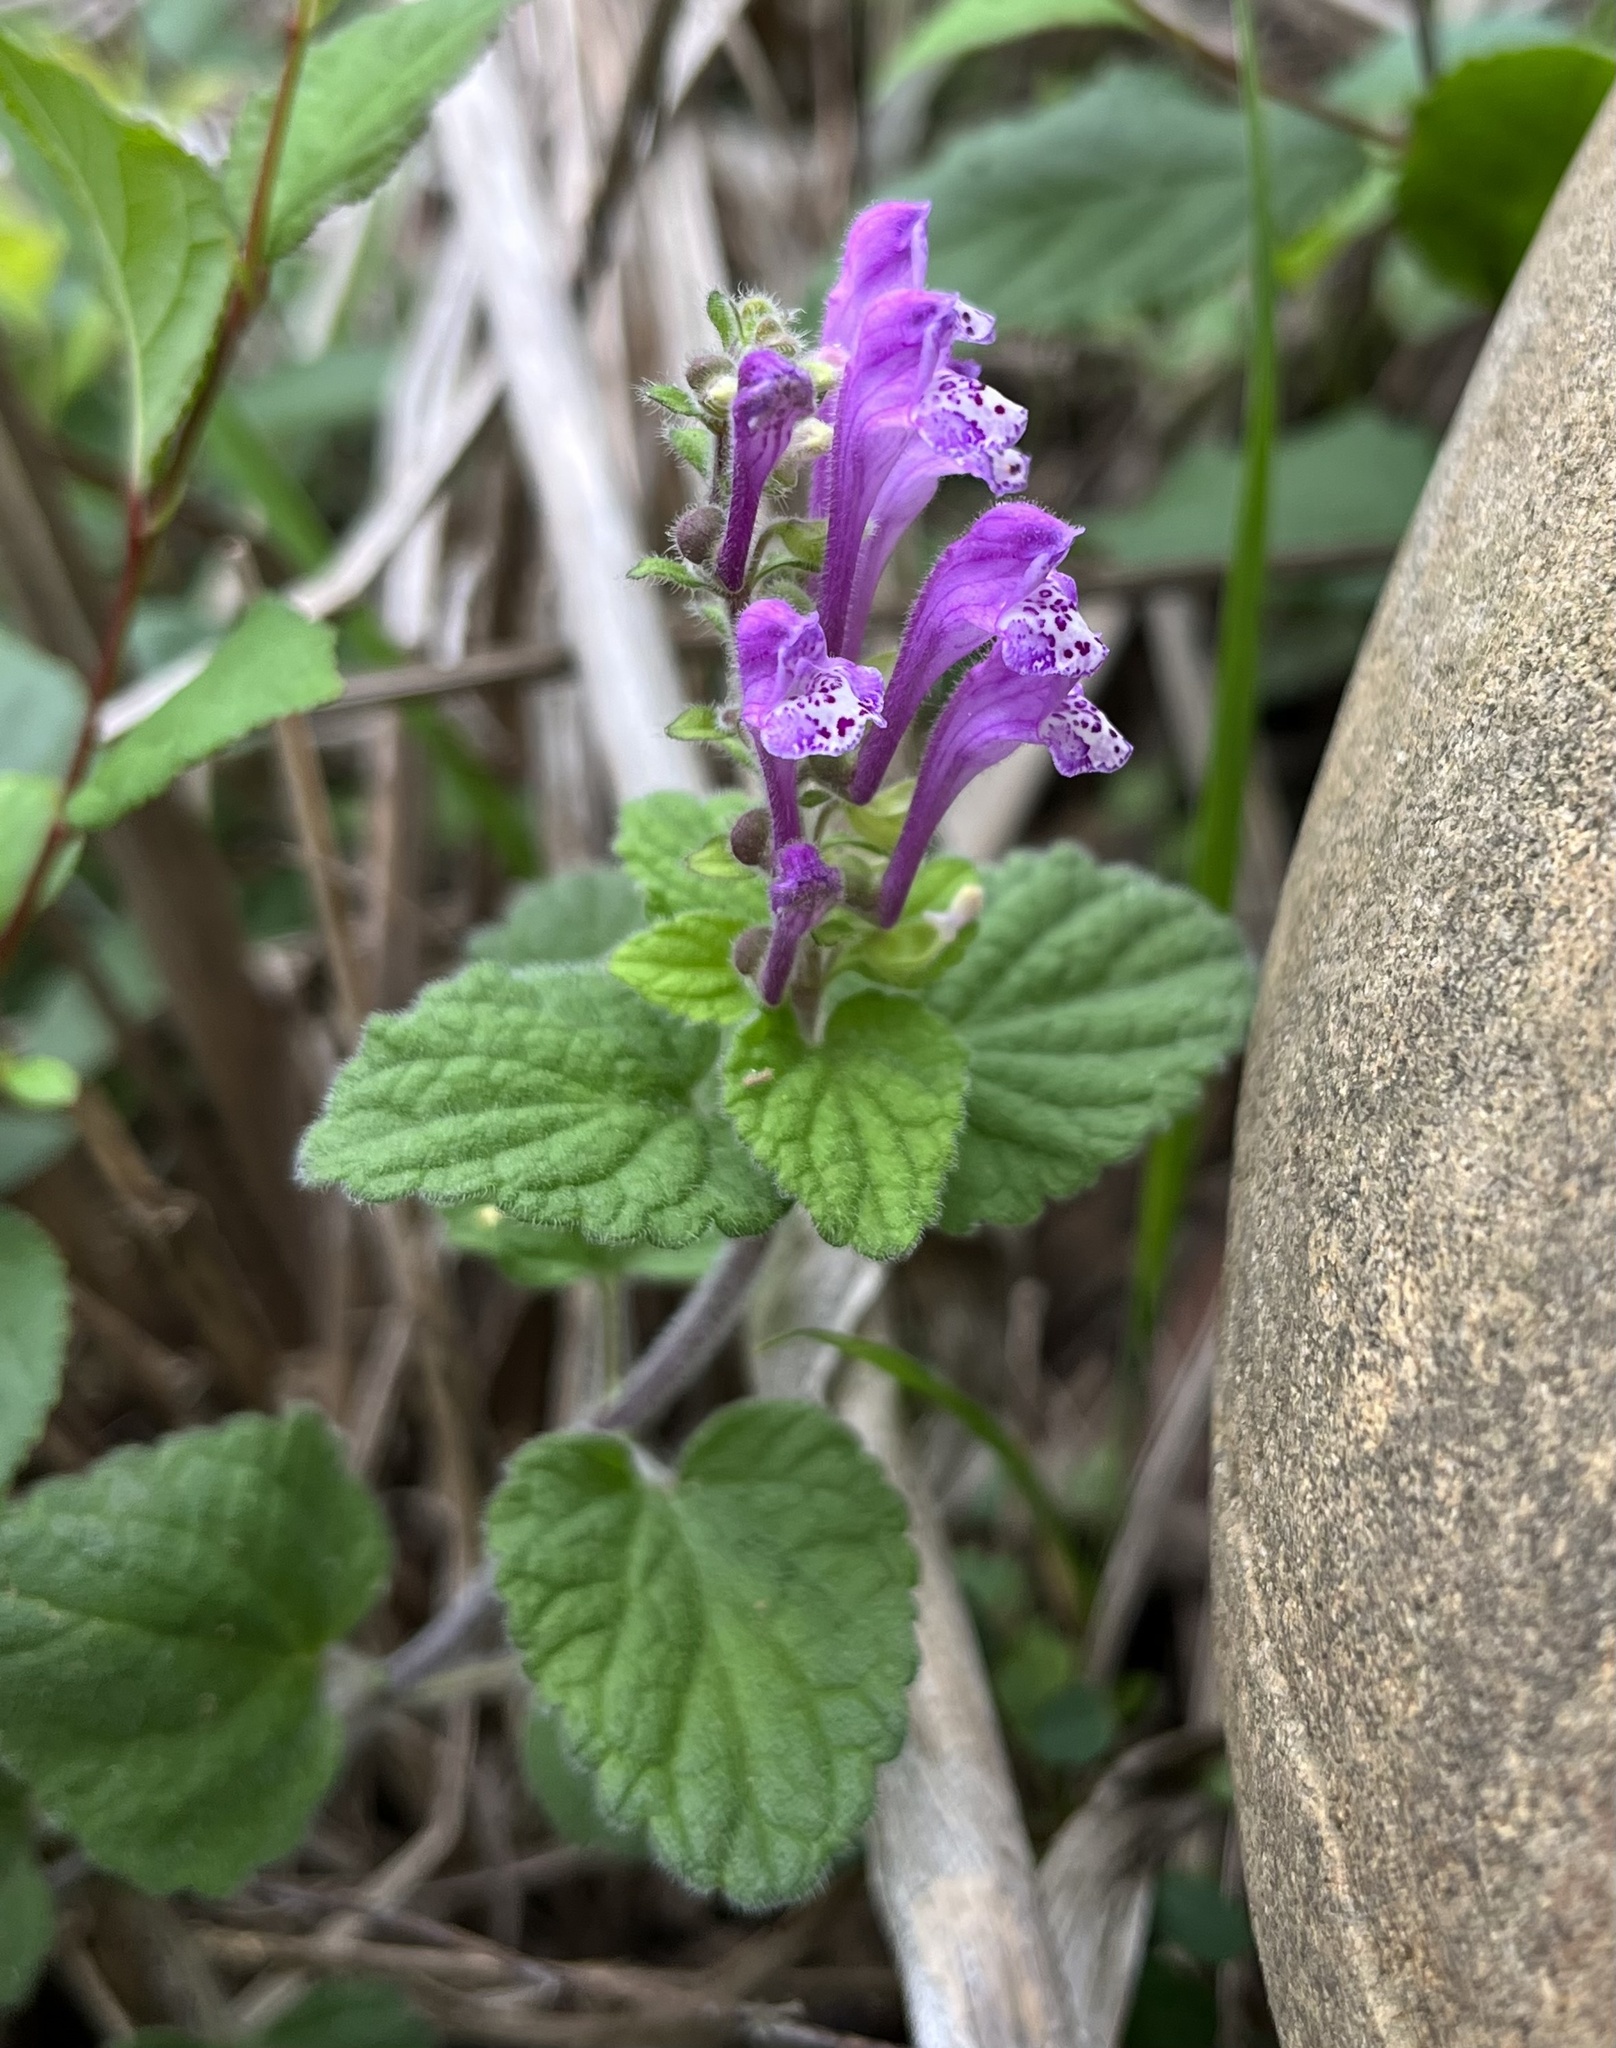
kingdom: Plantae
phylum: Tracheophyta
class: Magnoliopsida
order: Lamiales
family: Lamiaceae
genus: Scutellaria
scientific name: Scutellaria indica
